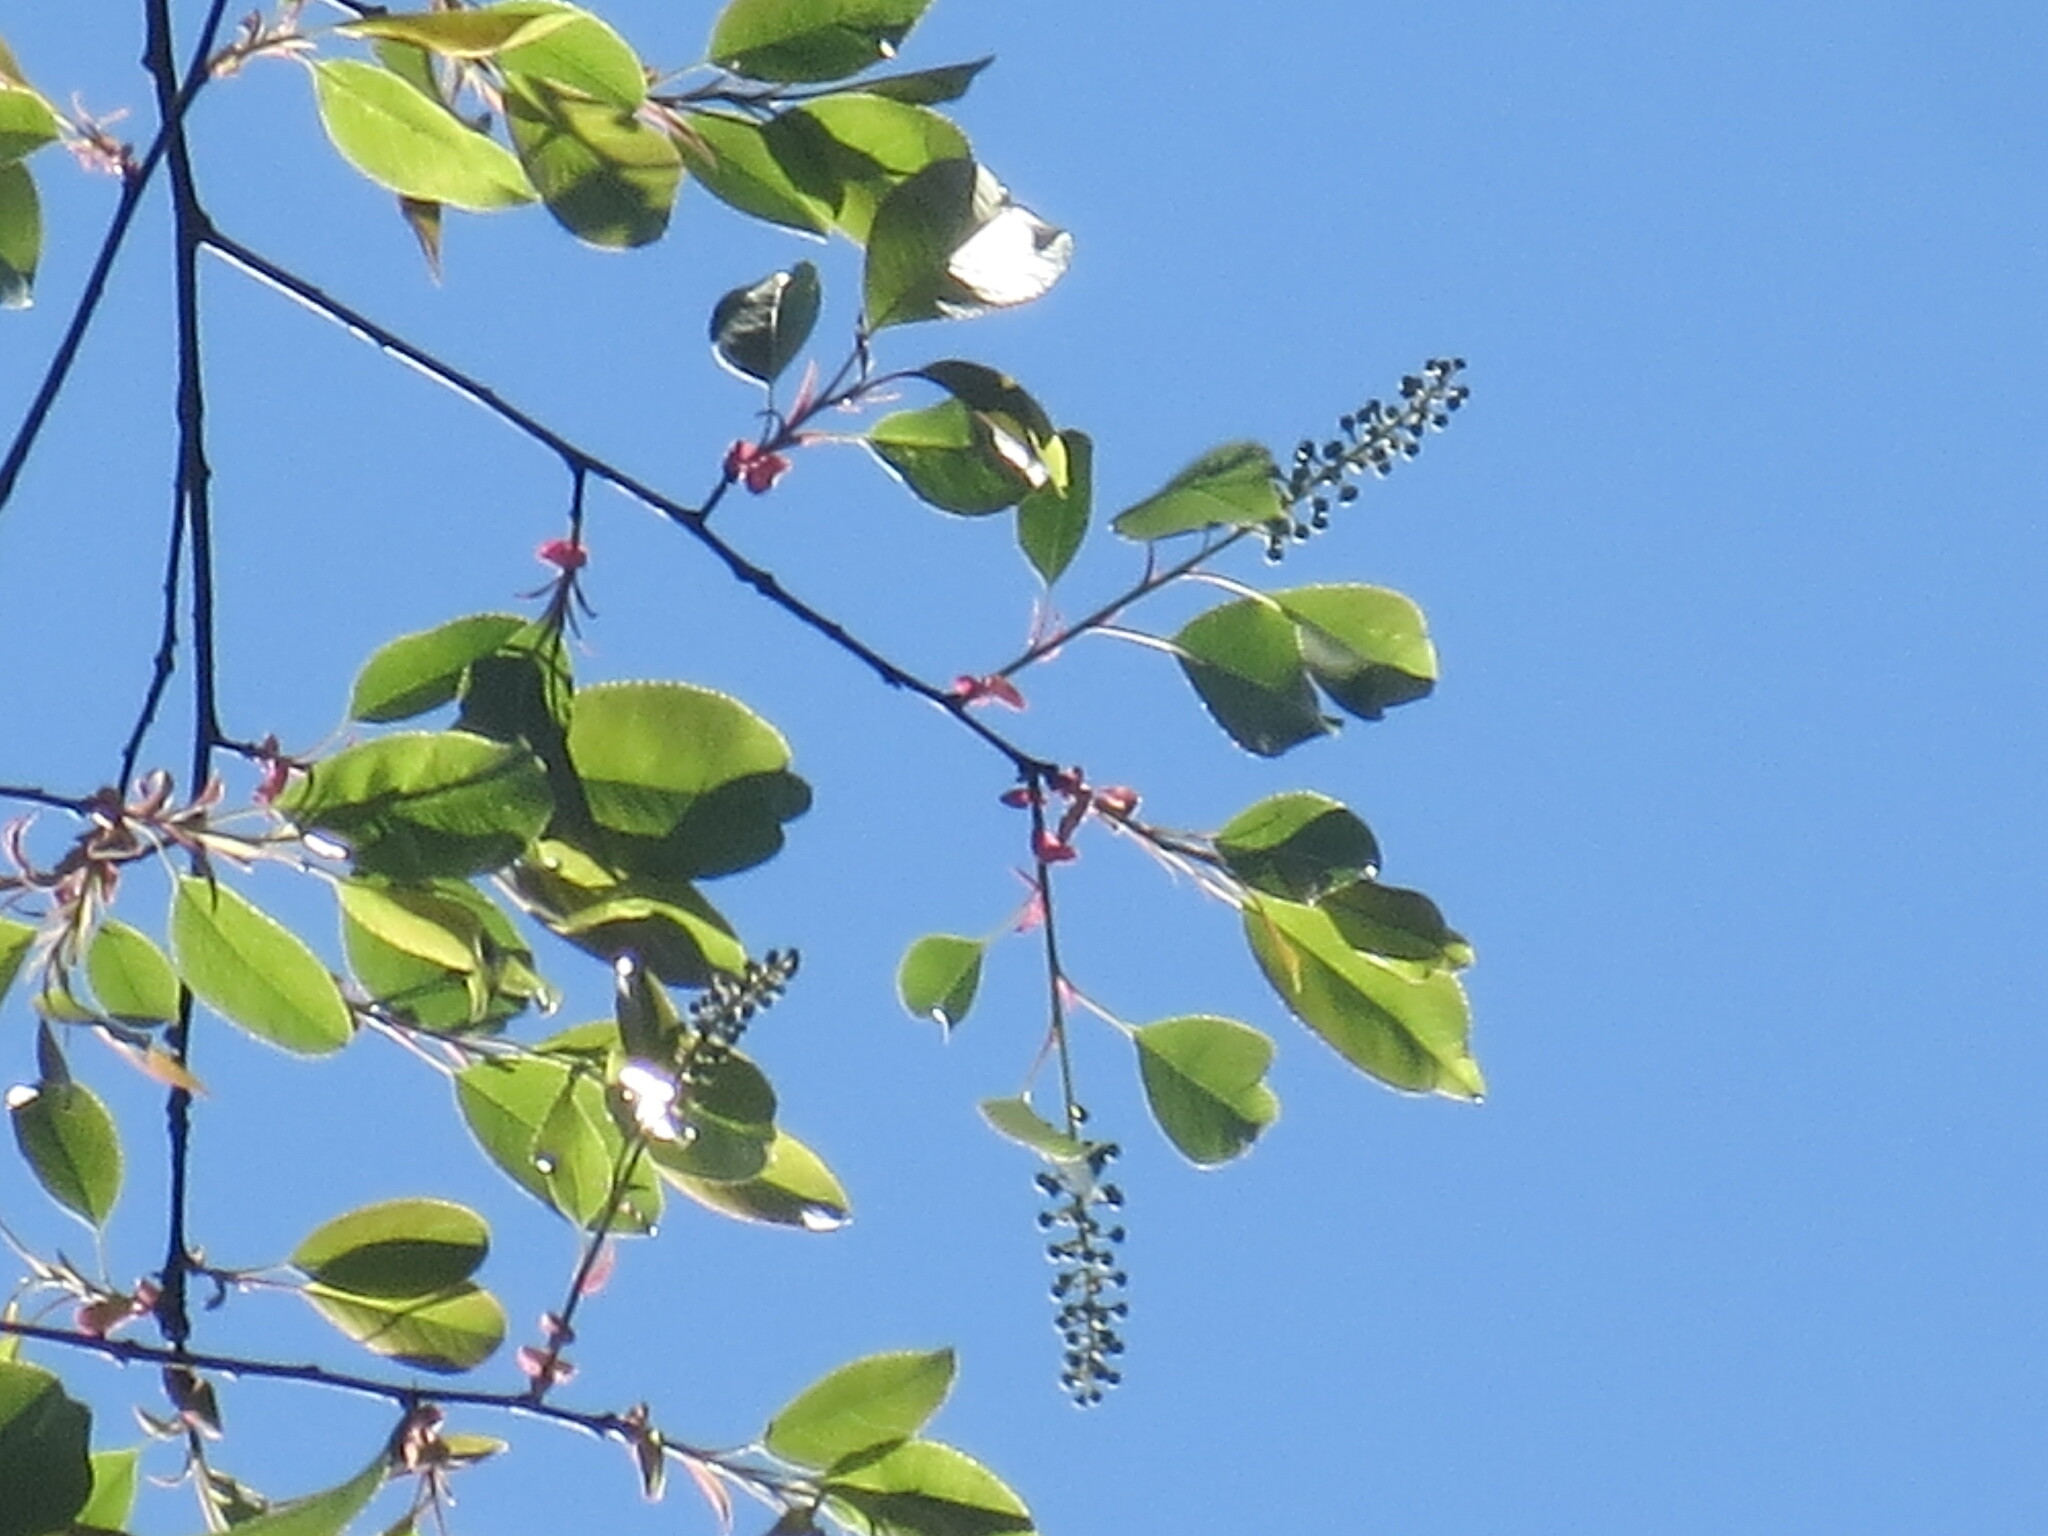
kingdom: Plantae
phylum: Tracheophyta
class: Magnoliopsida
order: Rosales
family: Rosaceae
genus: Prunus
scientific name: Prunus serotina
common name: Black cherry
